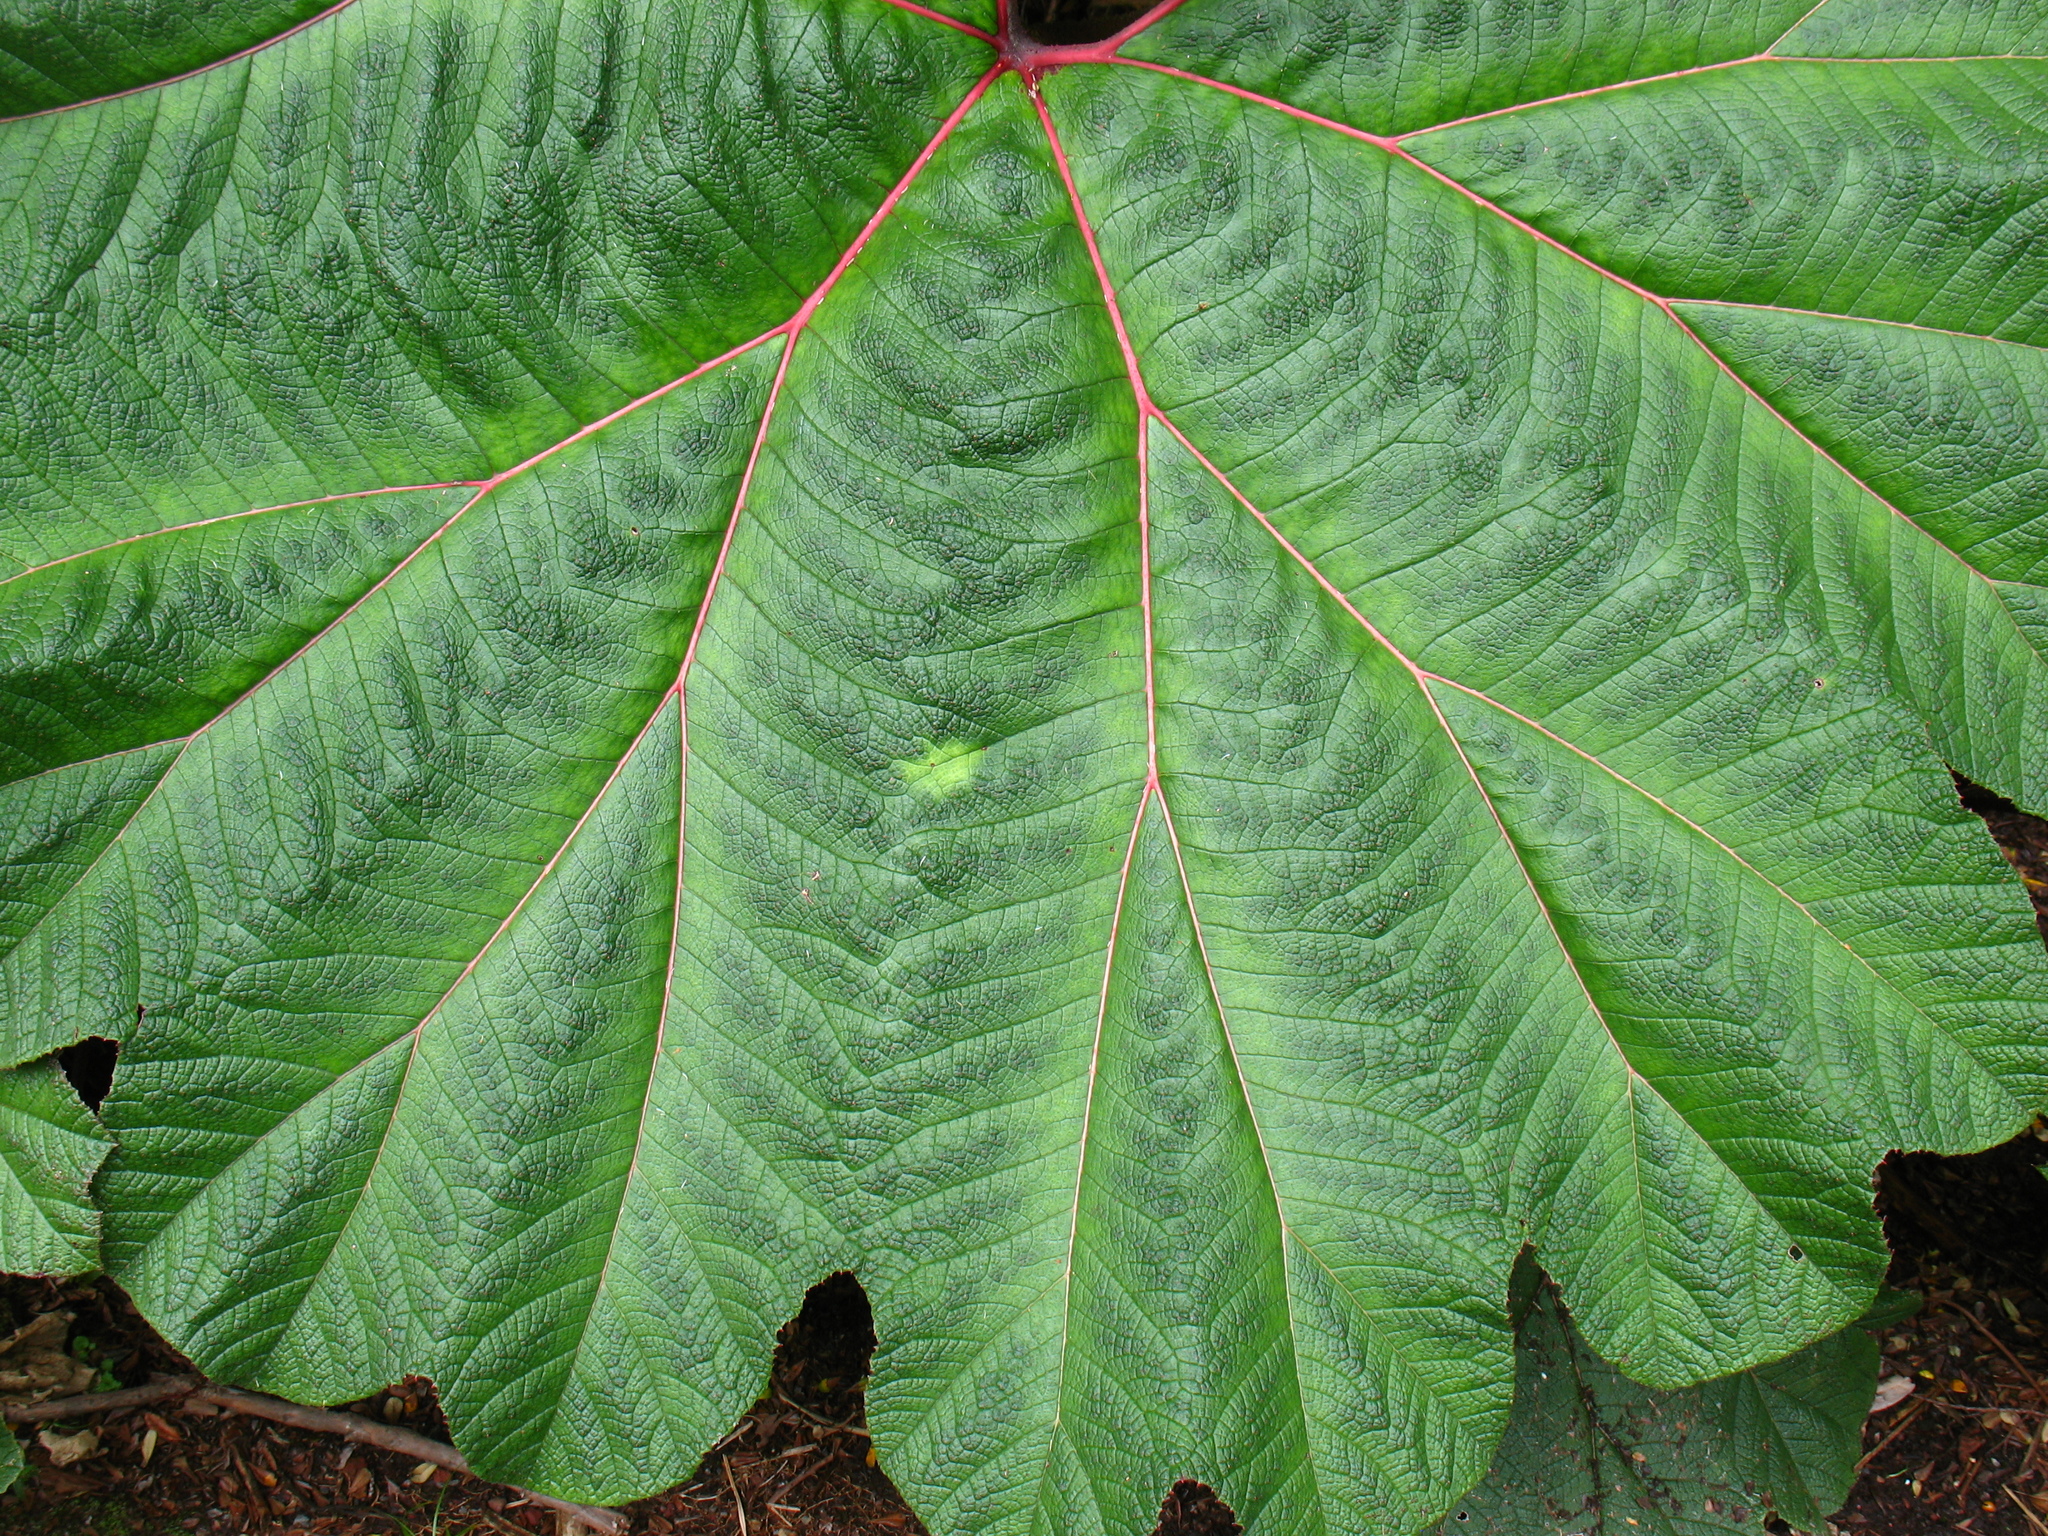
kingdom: Plantae
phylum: Tracheophyta
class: Magnoliopsida
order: Gunnerales
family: Gunneraceae
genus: Gunnera
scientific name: Gunnera insignis
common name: Poorman's umbrella
